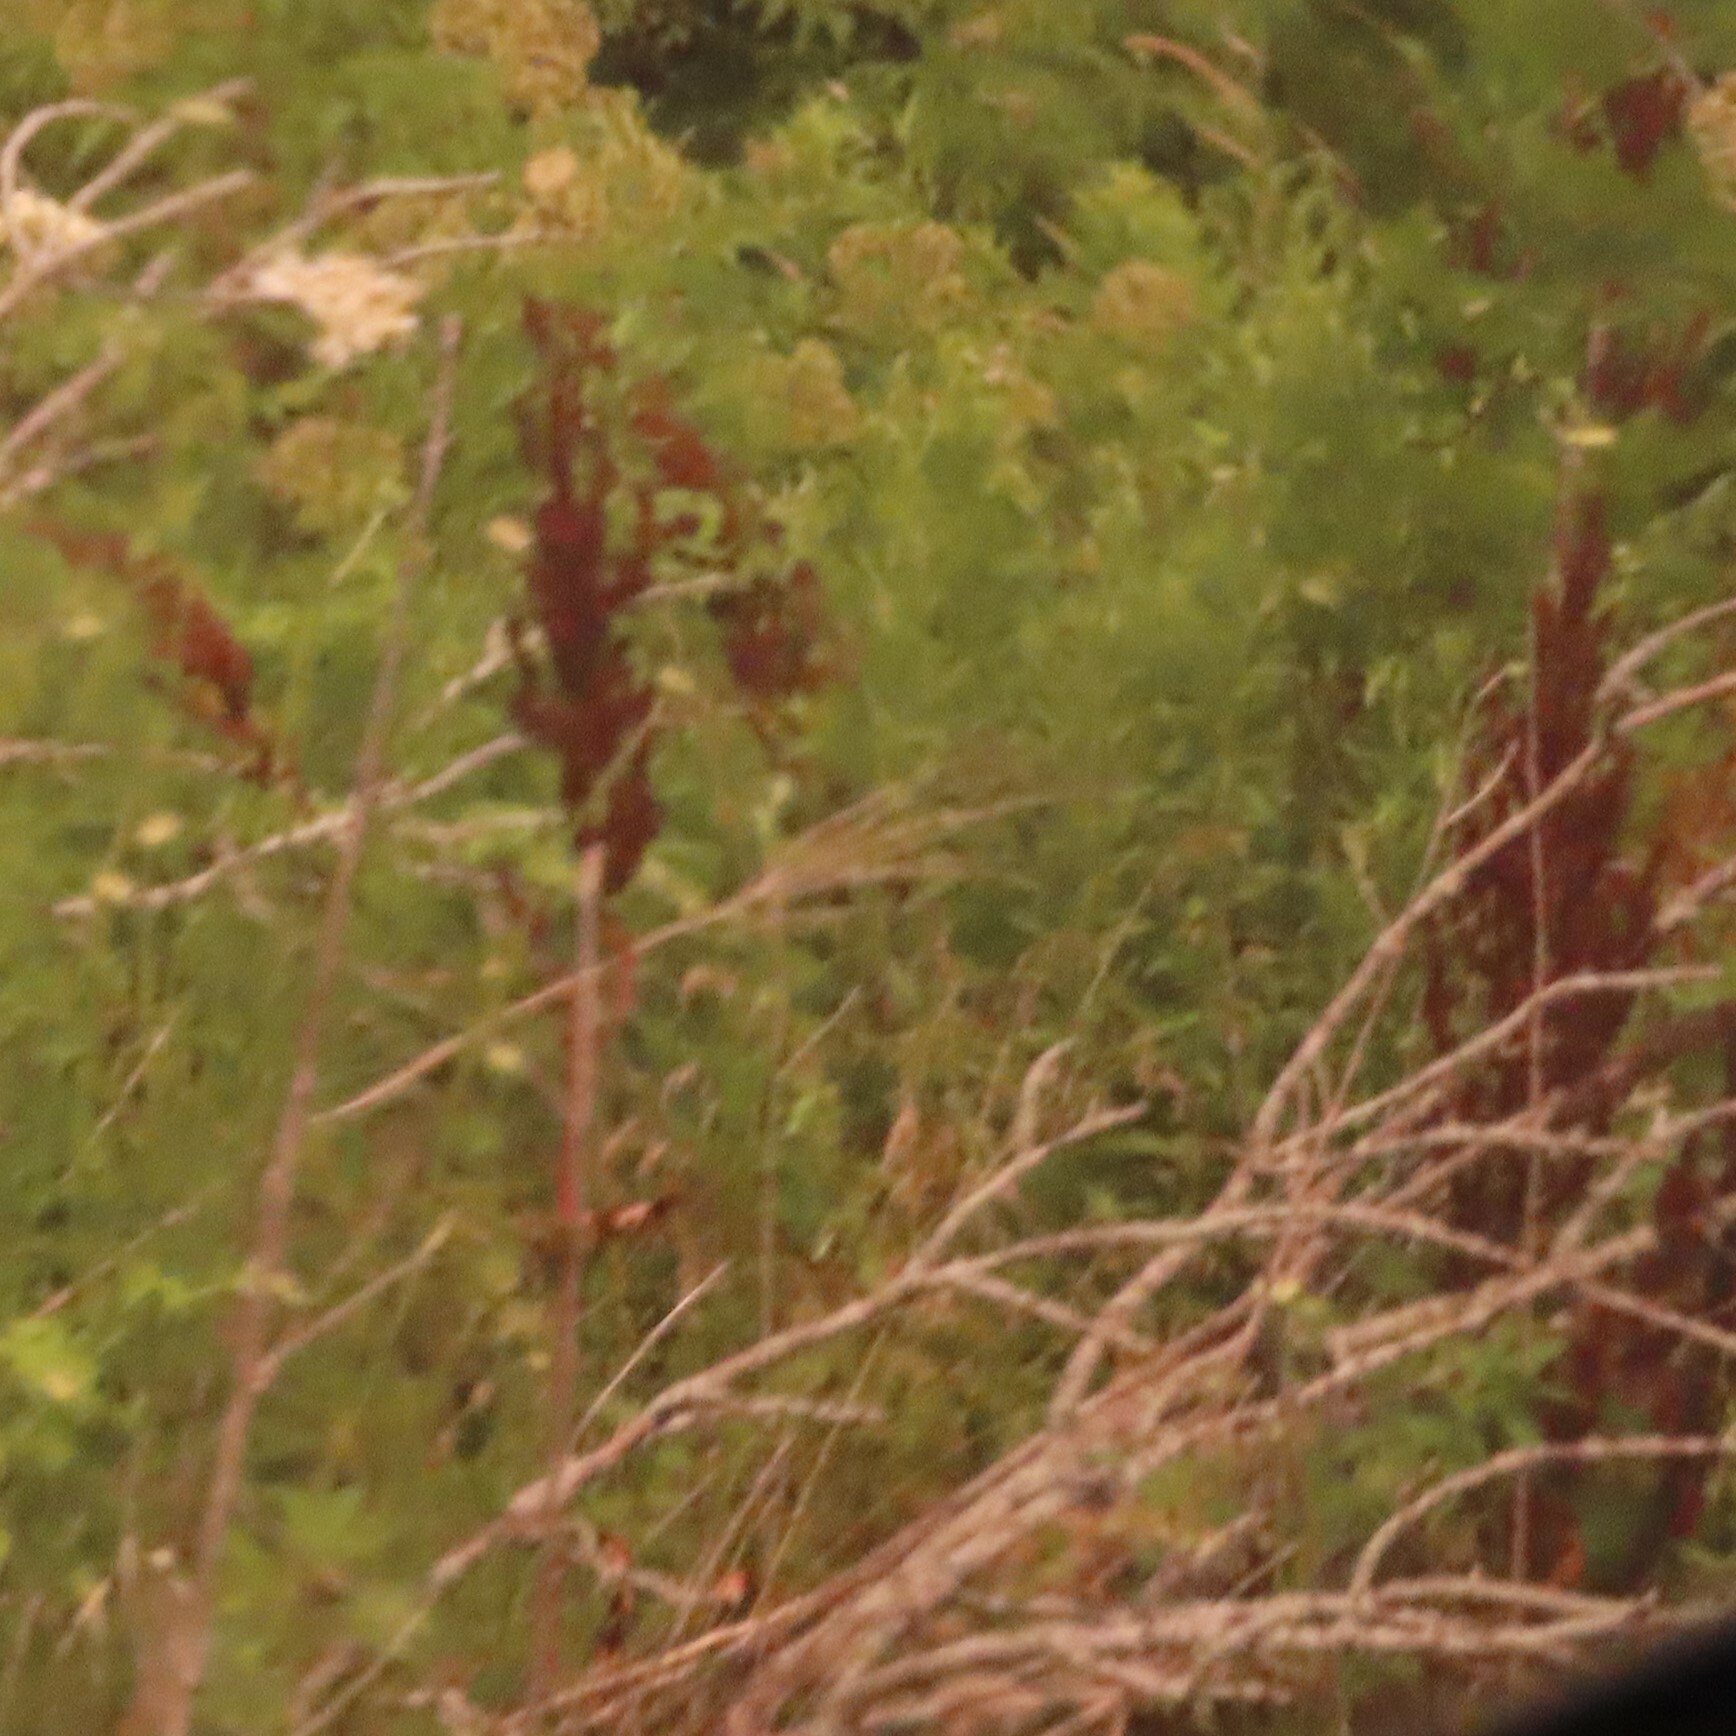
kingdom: Plantae
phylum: Tracheophyta
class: Magnoliopsida
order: Caryophyllales
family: Polygonaceae
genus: Rumex
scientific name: Rumex crispus
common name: Curled dock
